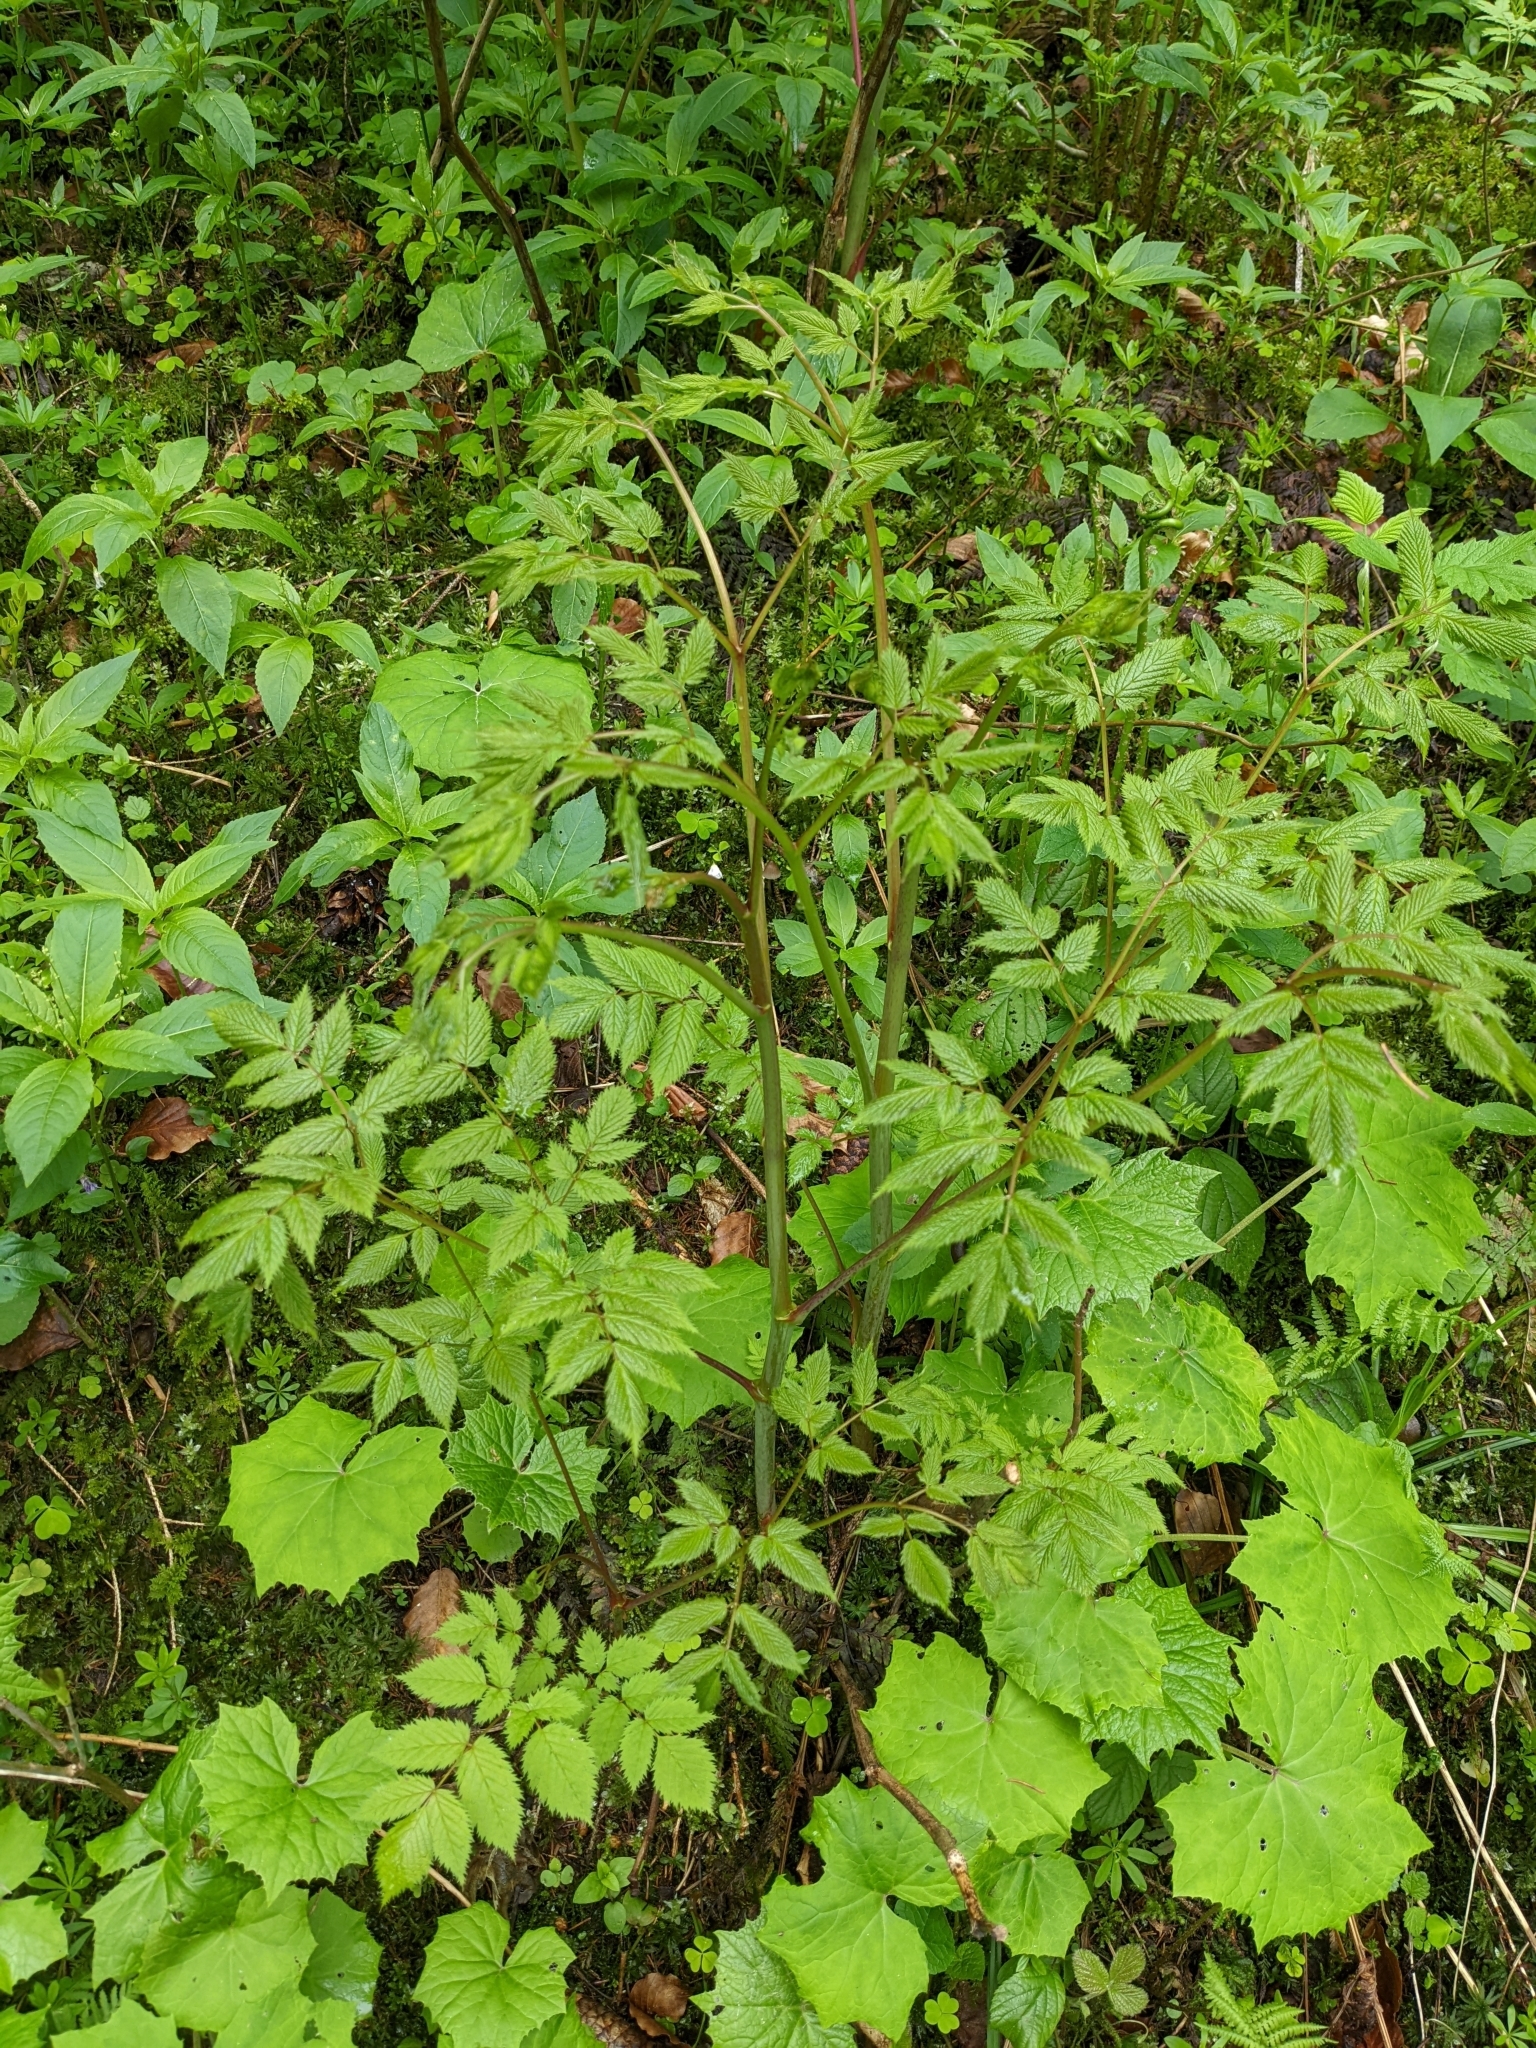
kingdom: Plantae
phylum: Tracheophyta
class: Magnoliopsida
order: Rosales
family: Rosaceae
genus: Aruncus
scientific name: Aruncus dioicus
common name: Buck's-beard
